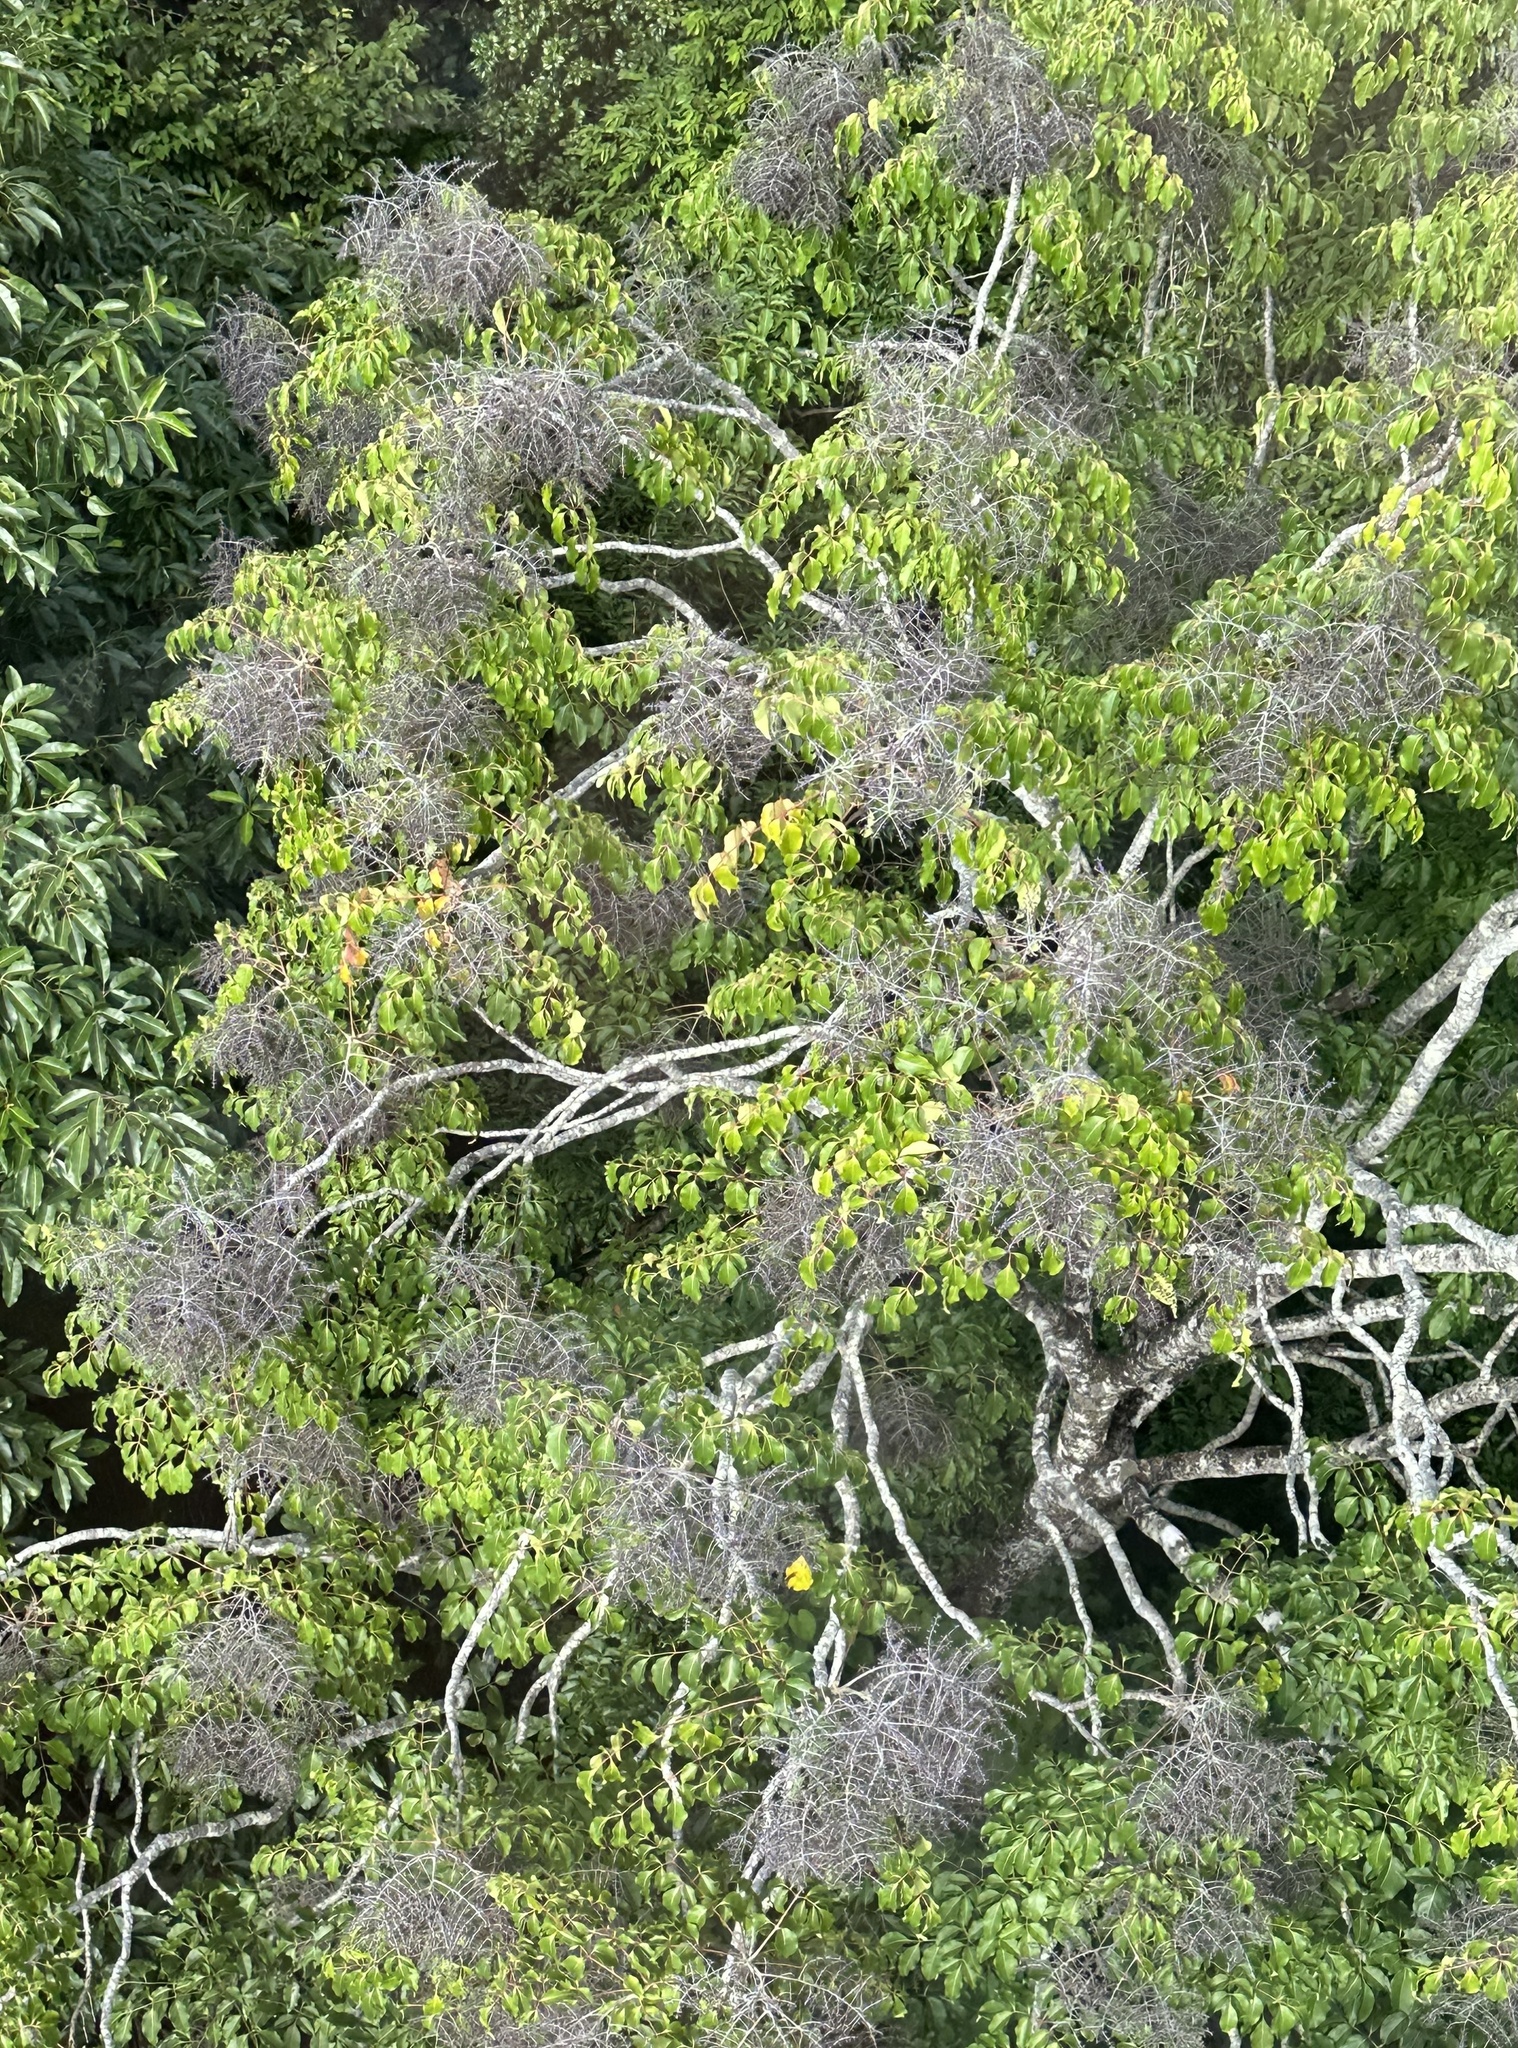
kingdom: Plantae
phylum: Tracheophyta
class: Magnoliopsida
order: Apiales
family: Araliaceae
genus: Polyscias
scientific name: Polyscias elegans
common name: Mowbulan whitewood
